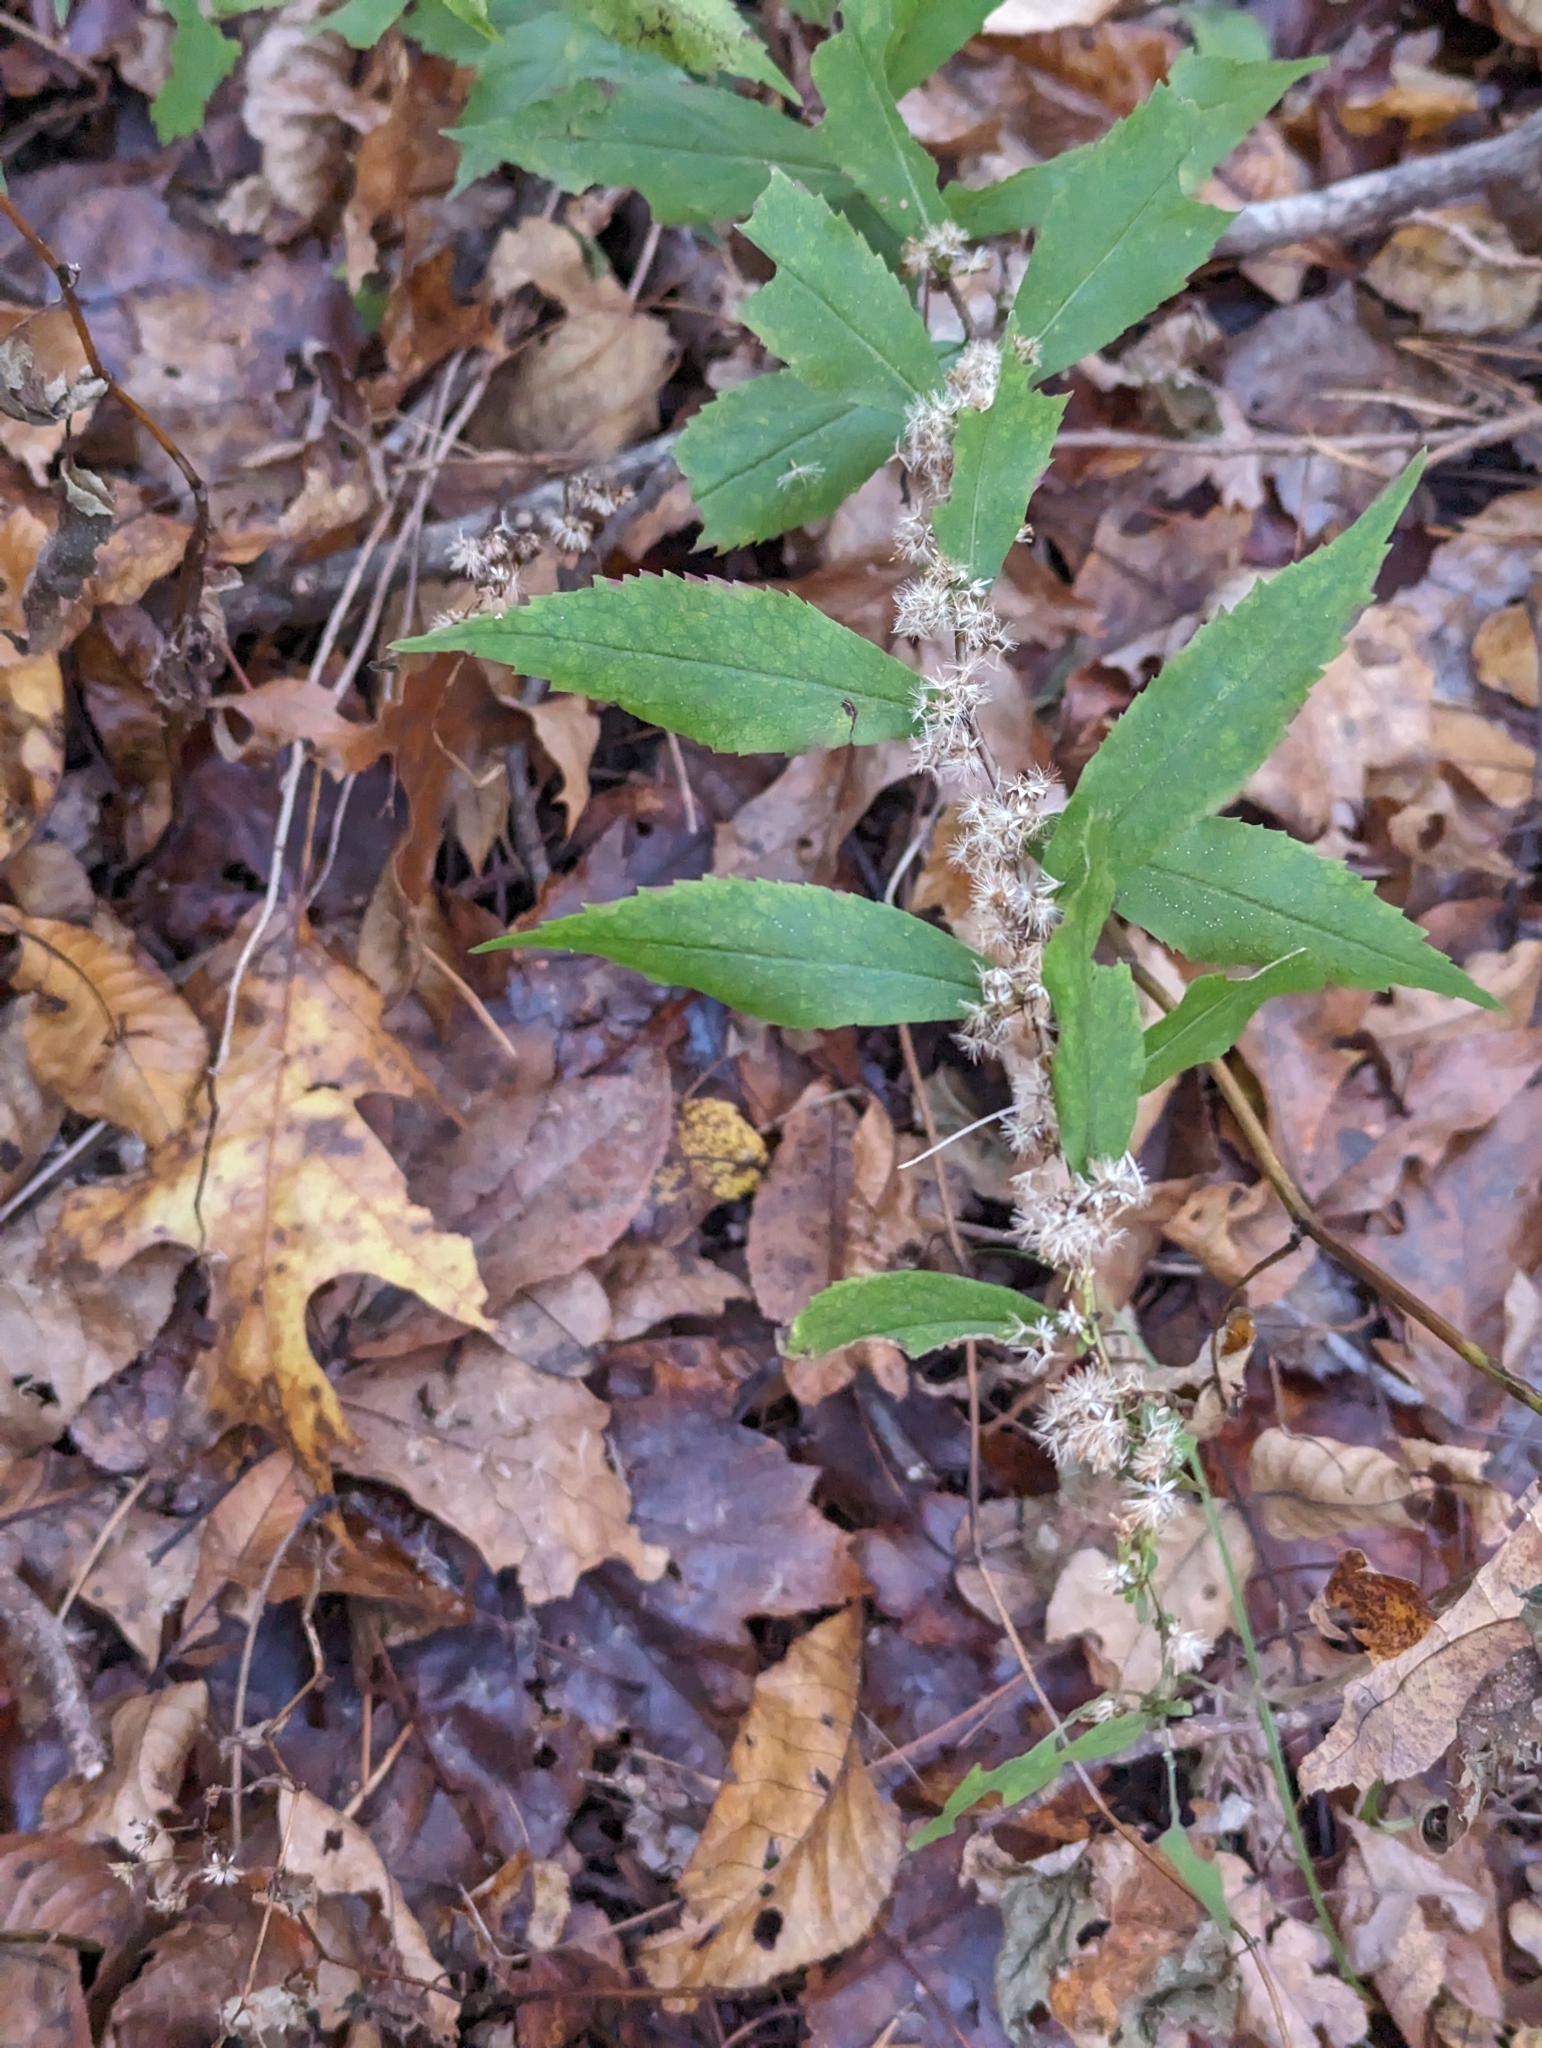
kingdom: Plantae
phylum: Tracheophyta
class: Magnoliopsida
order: Asterales
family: Asteraceae
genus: Solidago
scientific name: Solidago caesia
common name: Woodland goldenrod
